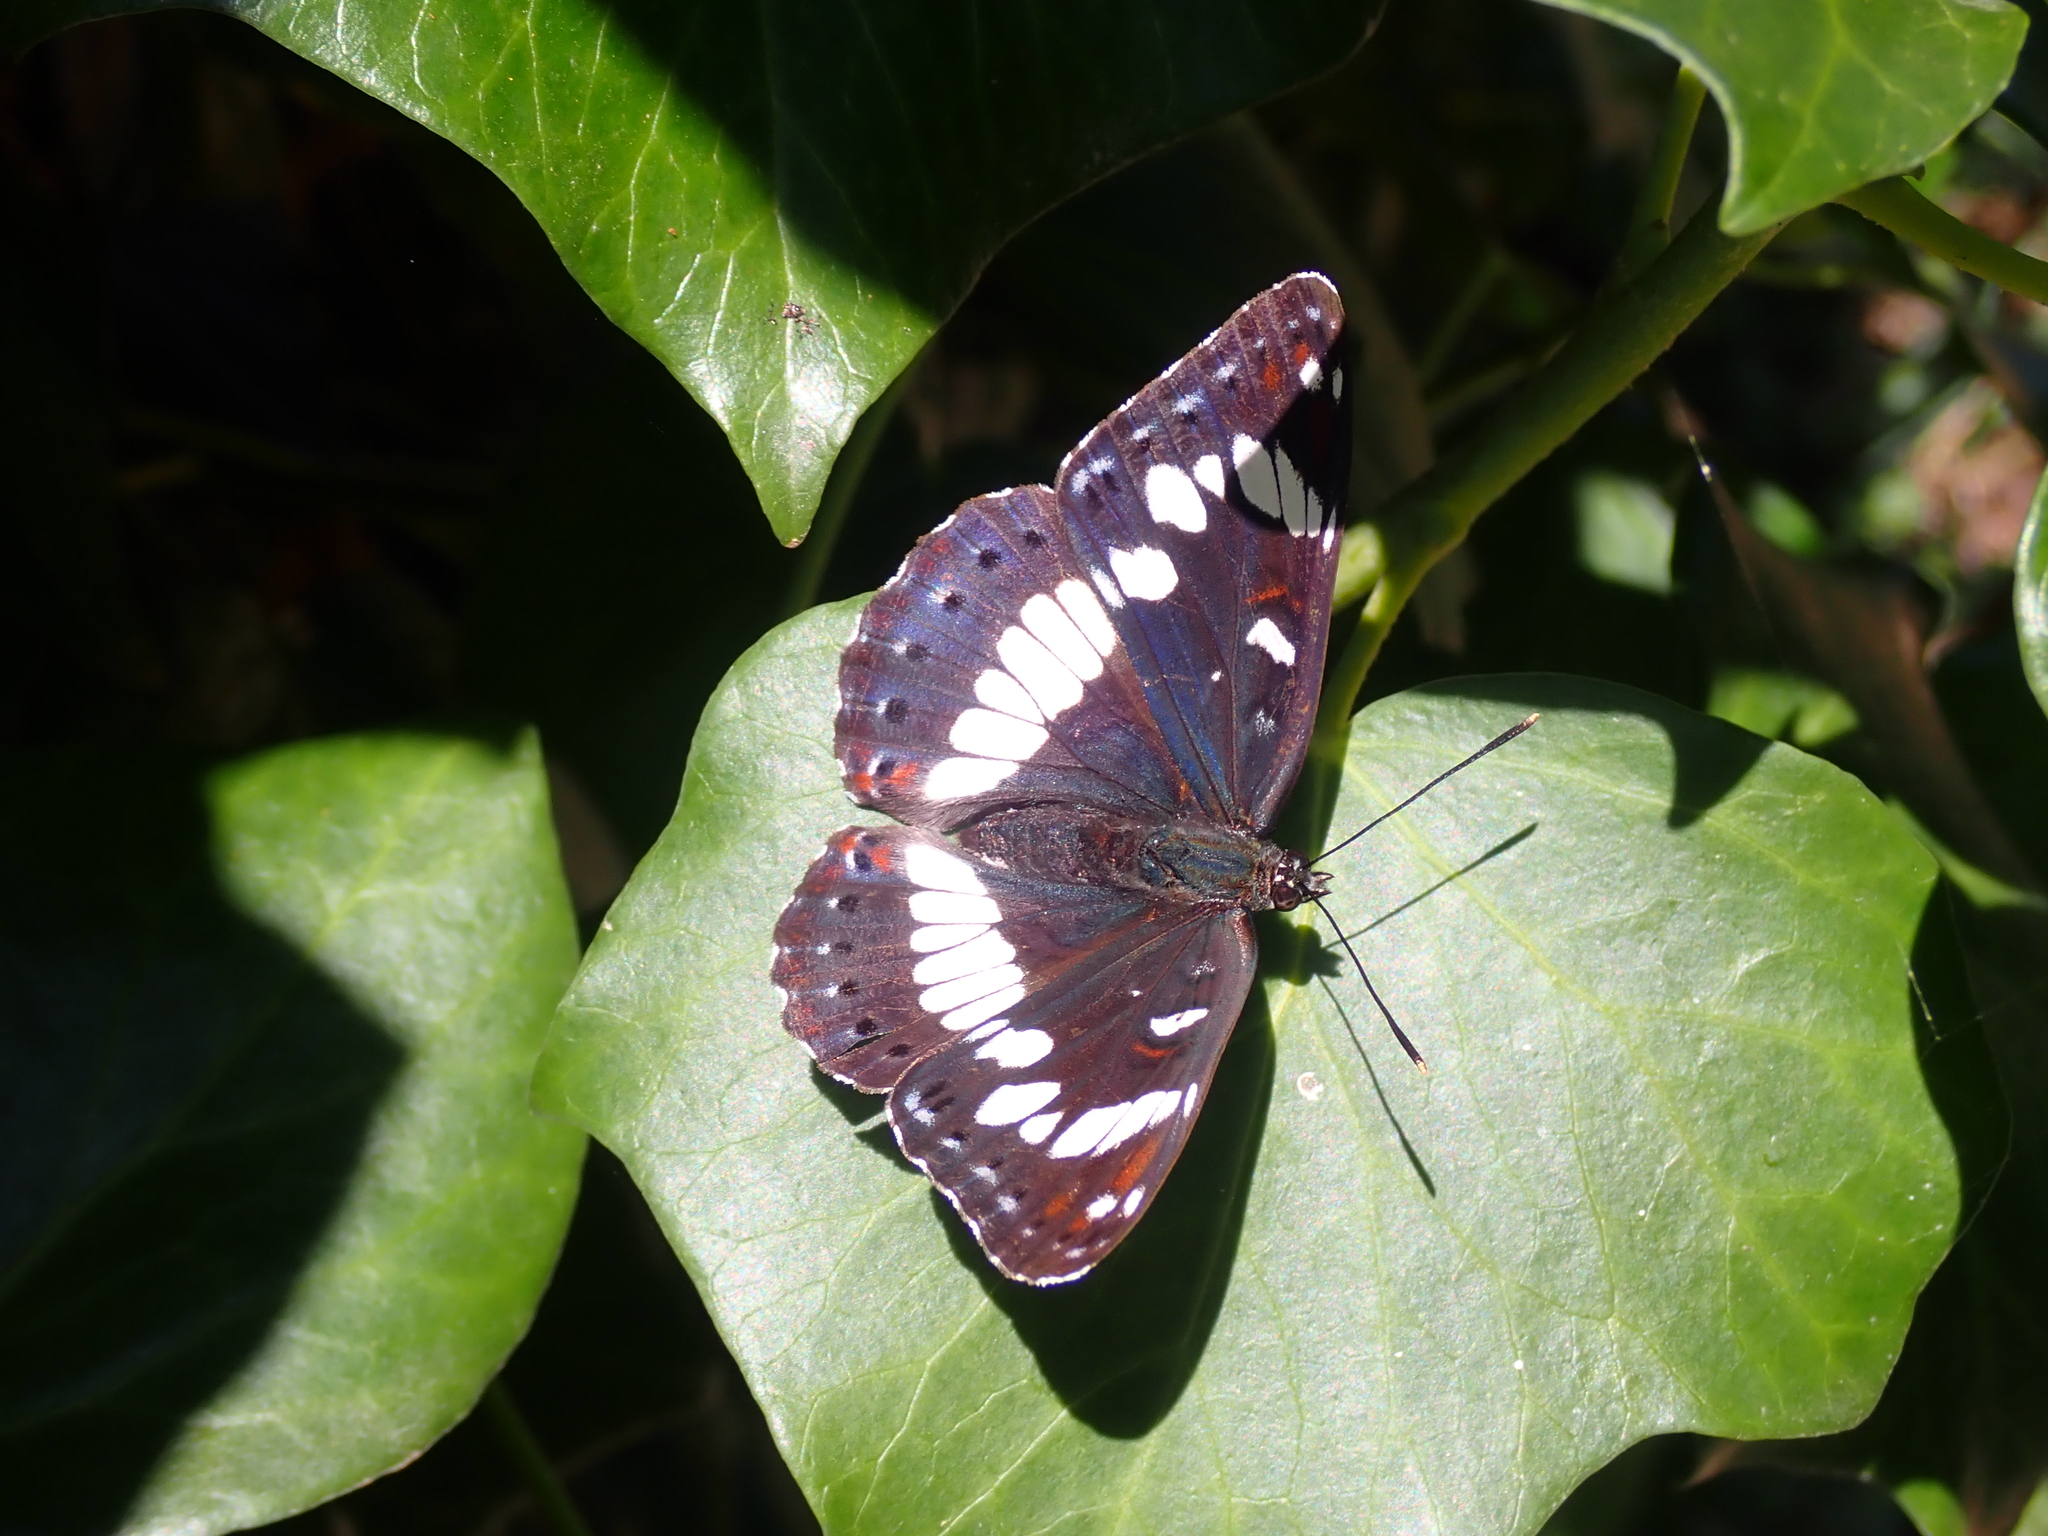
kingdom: Animalia
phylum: Arthropoda
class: Insecta
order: Lepidoptera
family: Nymphalidae
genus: Limenitis
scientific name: Limenitis reducta
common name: Southern white admiral
